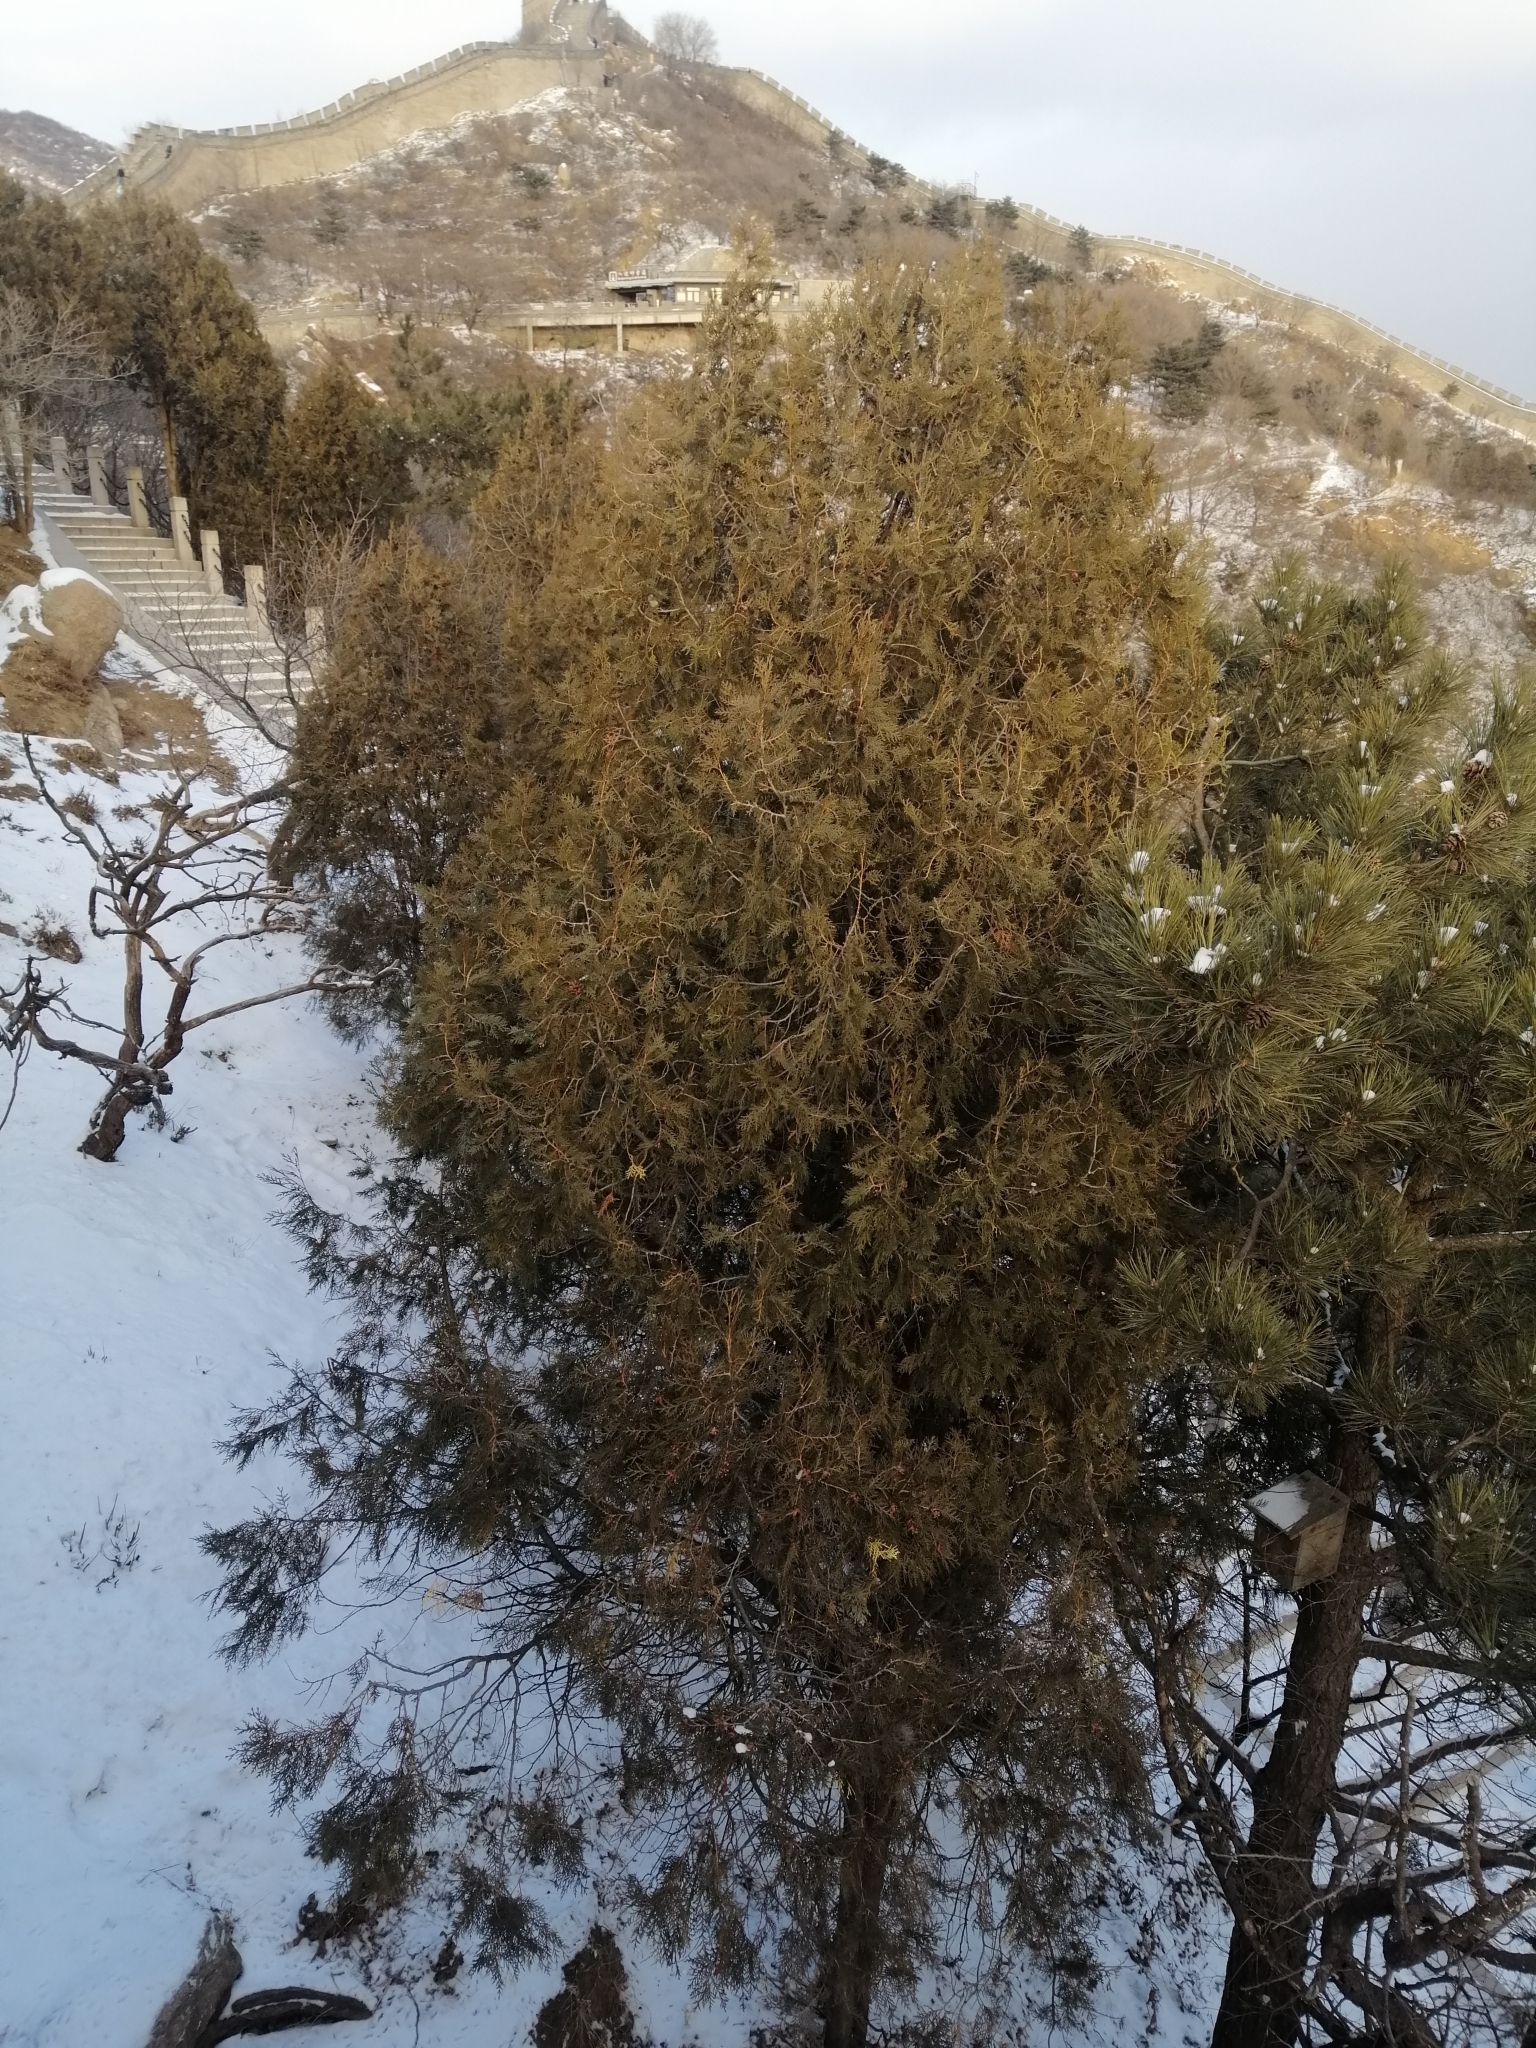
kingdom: Plantae
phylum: Tracheophyta
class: Pinopsida
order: Pinales
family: Cupressaceae
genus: Platycladus
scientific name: Platycladus orientalis
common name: Chinese thuja
